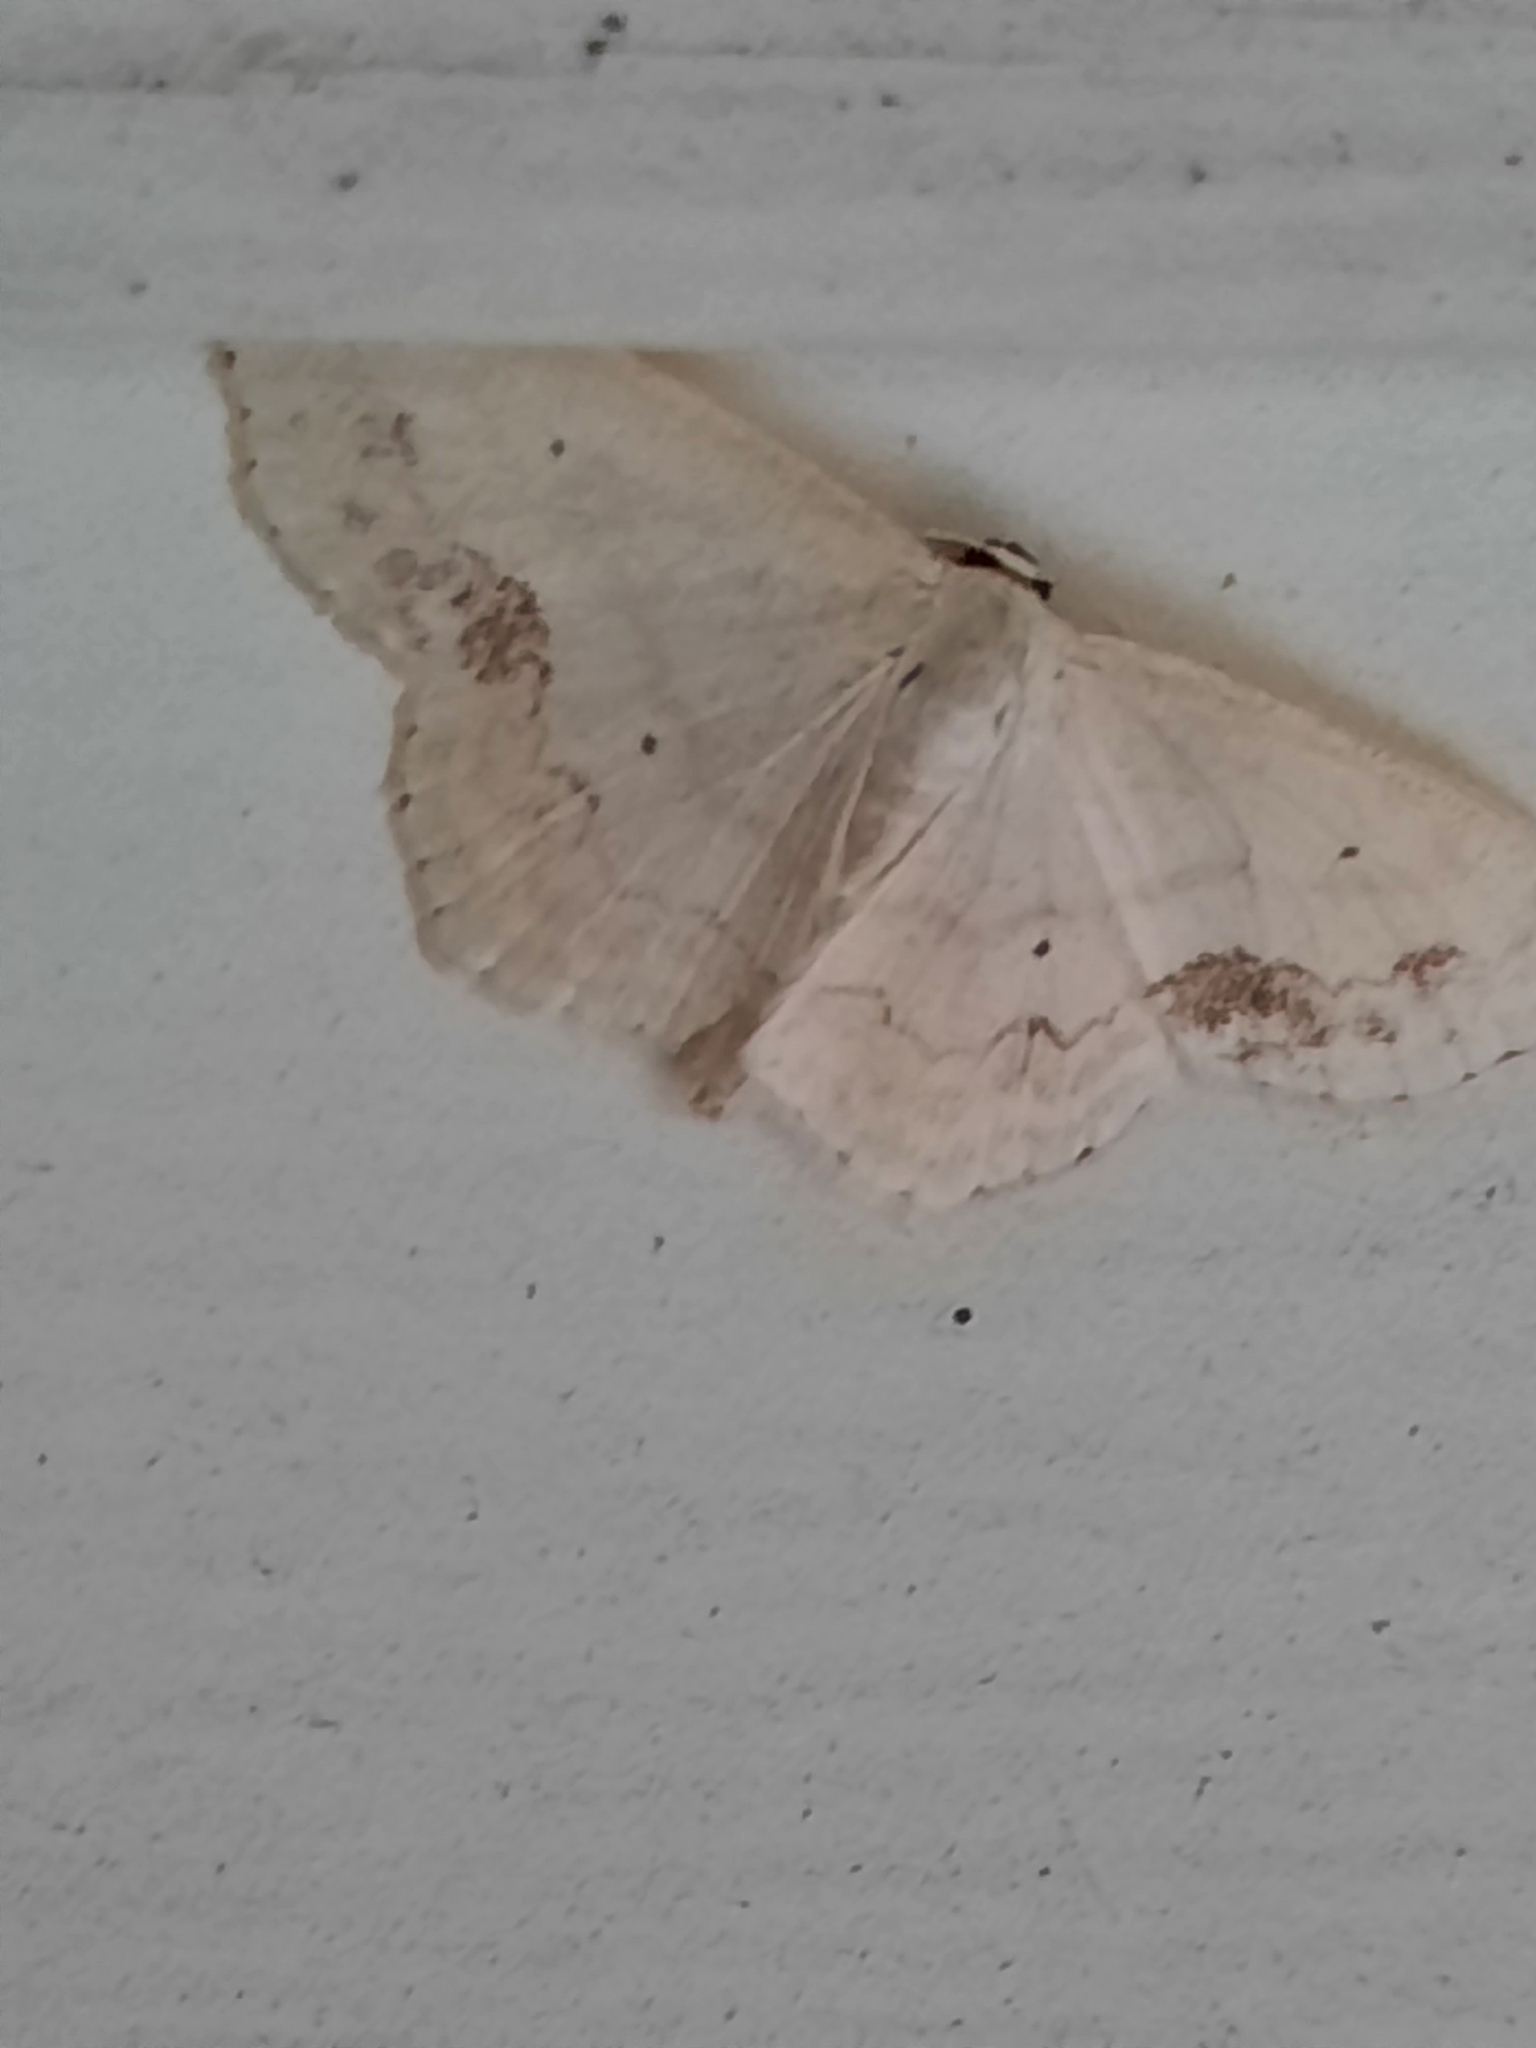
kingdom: Animalia
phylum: Arthropoda
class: Insecta
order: Lepidoptera
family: Geometridae
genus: Scopula
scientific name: Scopula limboundata
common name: Large lace border
